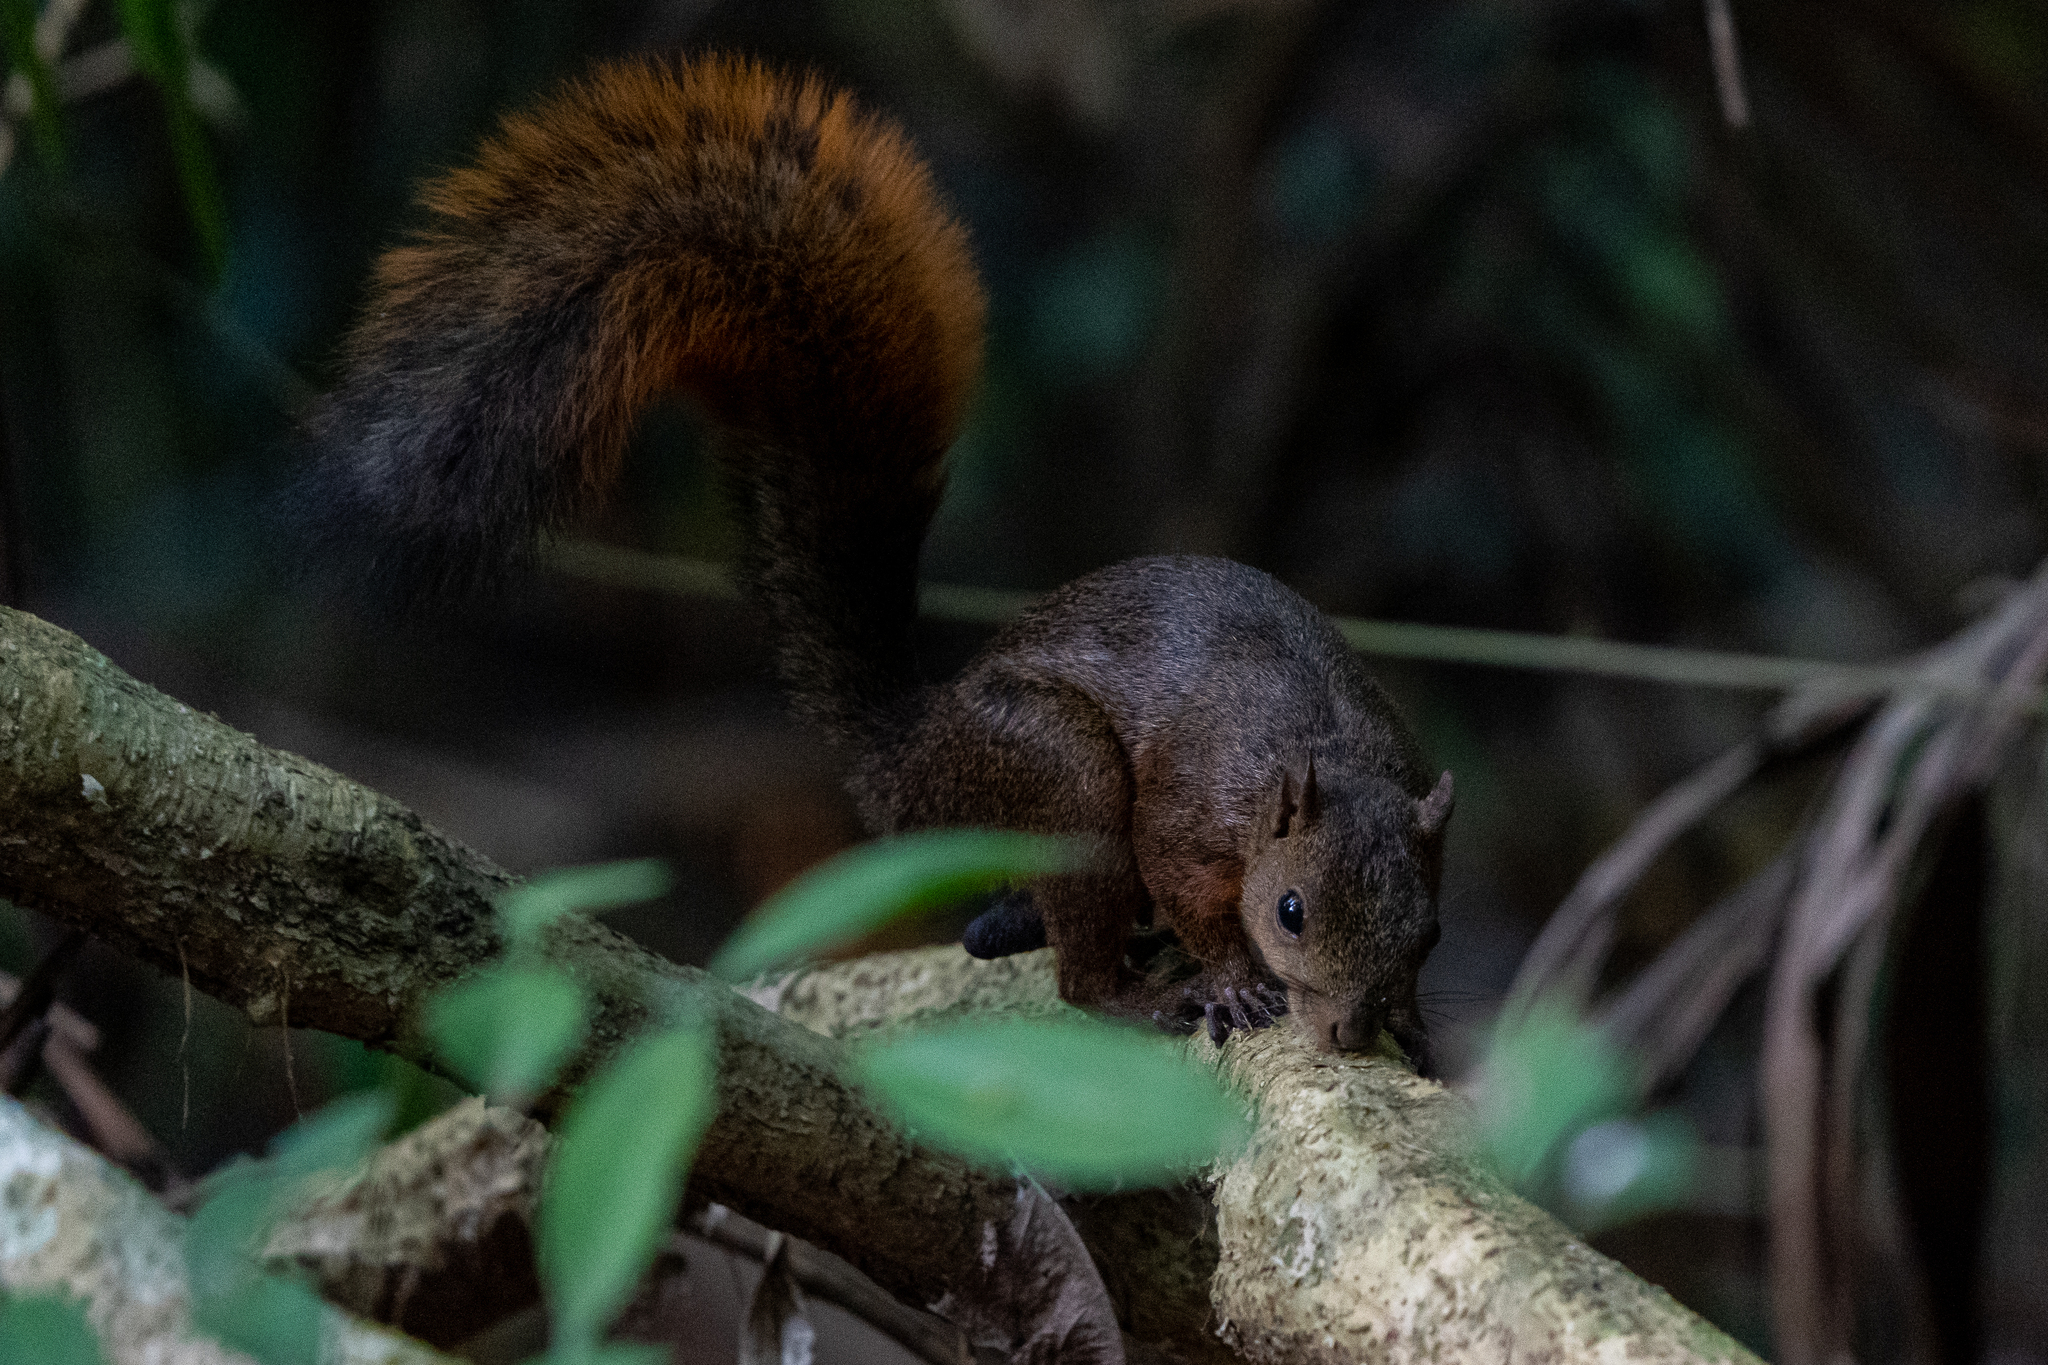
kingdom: Animalia
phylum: Chordata
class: Mammalia
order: Rodentia
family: Sciuridae
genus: Sciurus
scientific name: Sciurus granatensis
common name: Red-tailed squirrel
